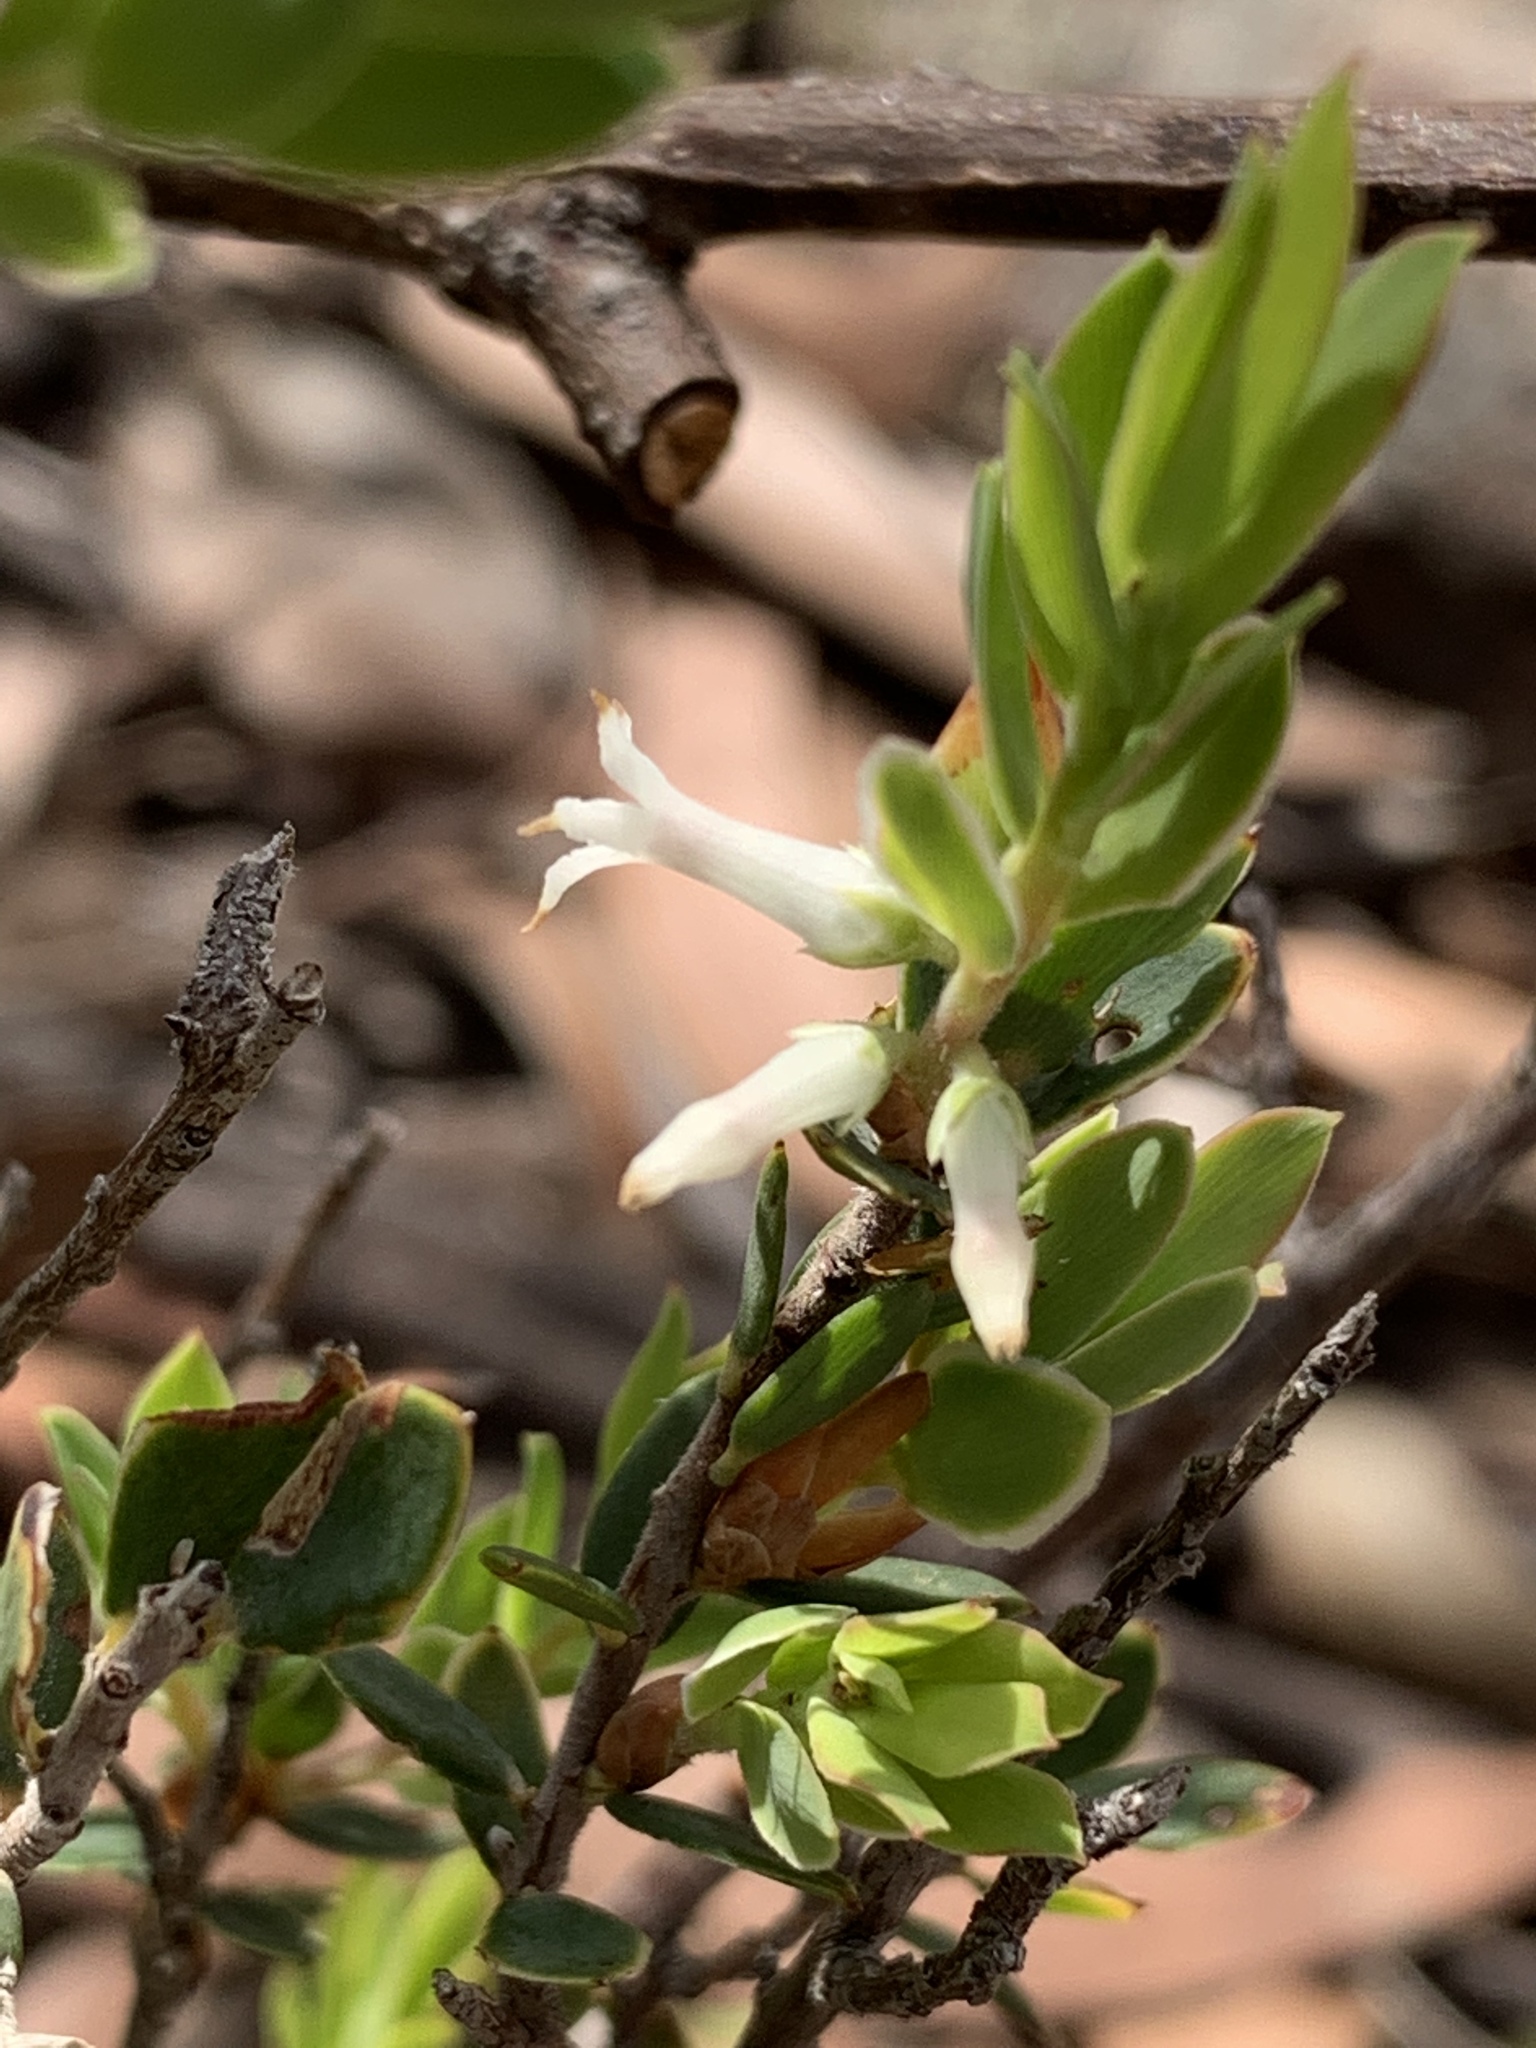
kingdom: Plantae
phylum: Tracheophyta
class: Magnoliopsida
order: Ericales
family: Ericaceae
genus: Brachyloma
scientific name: Brachyloma daphnoides
